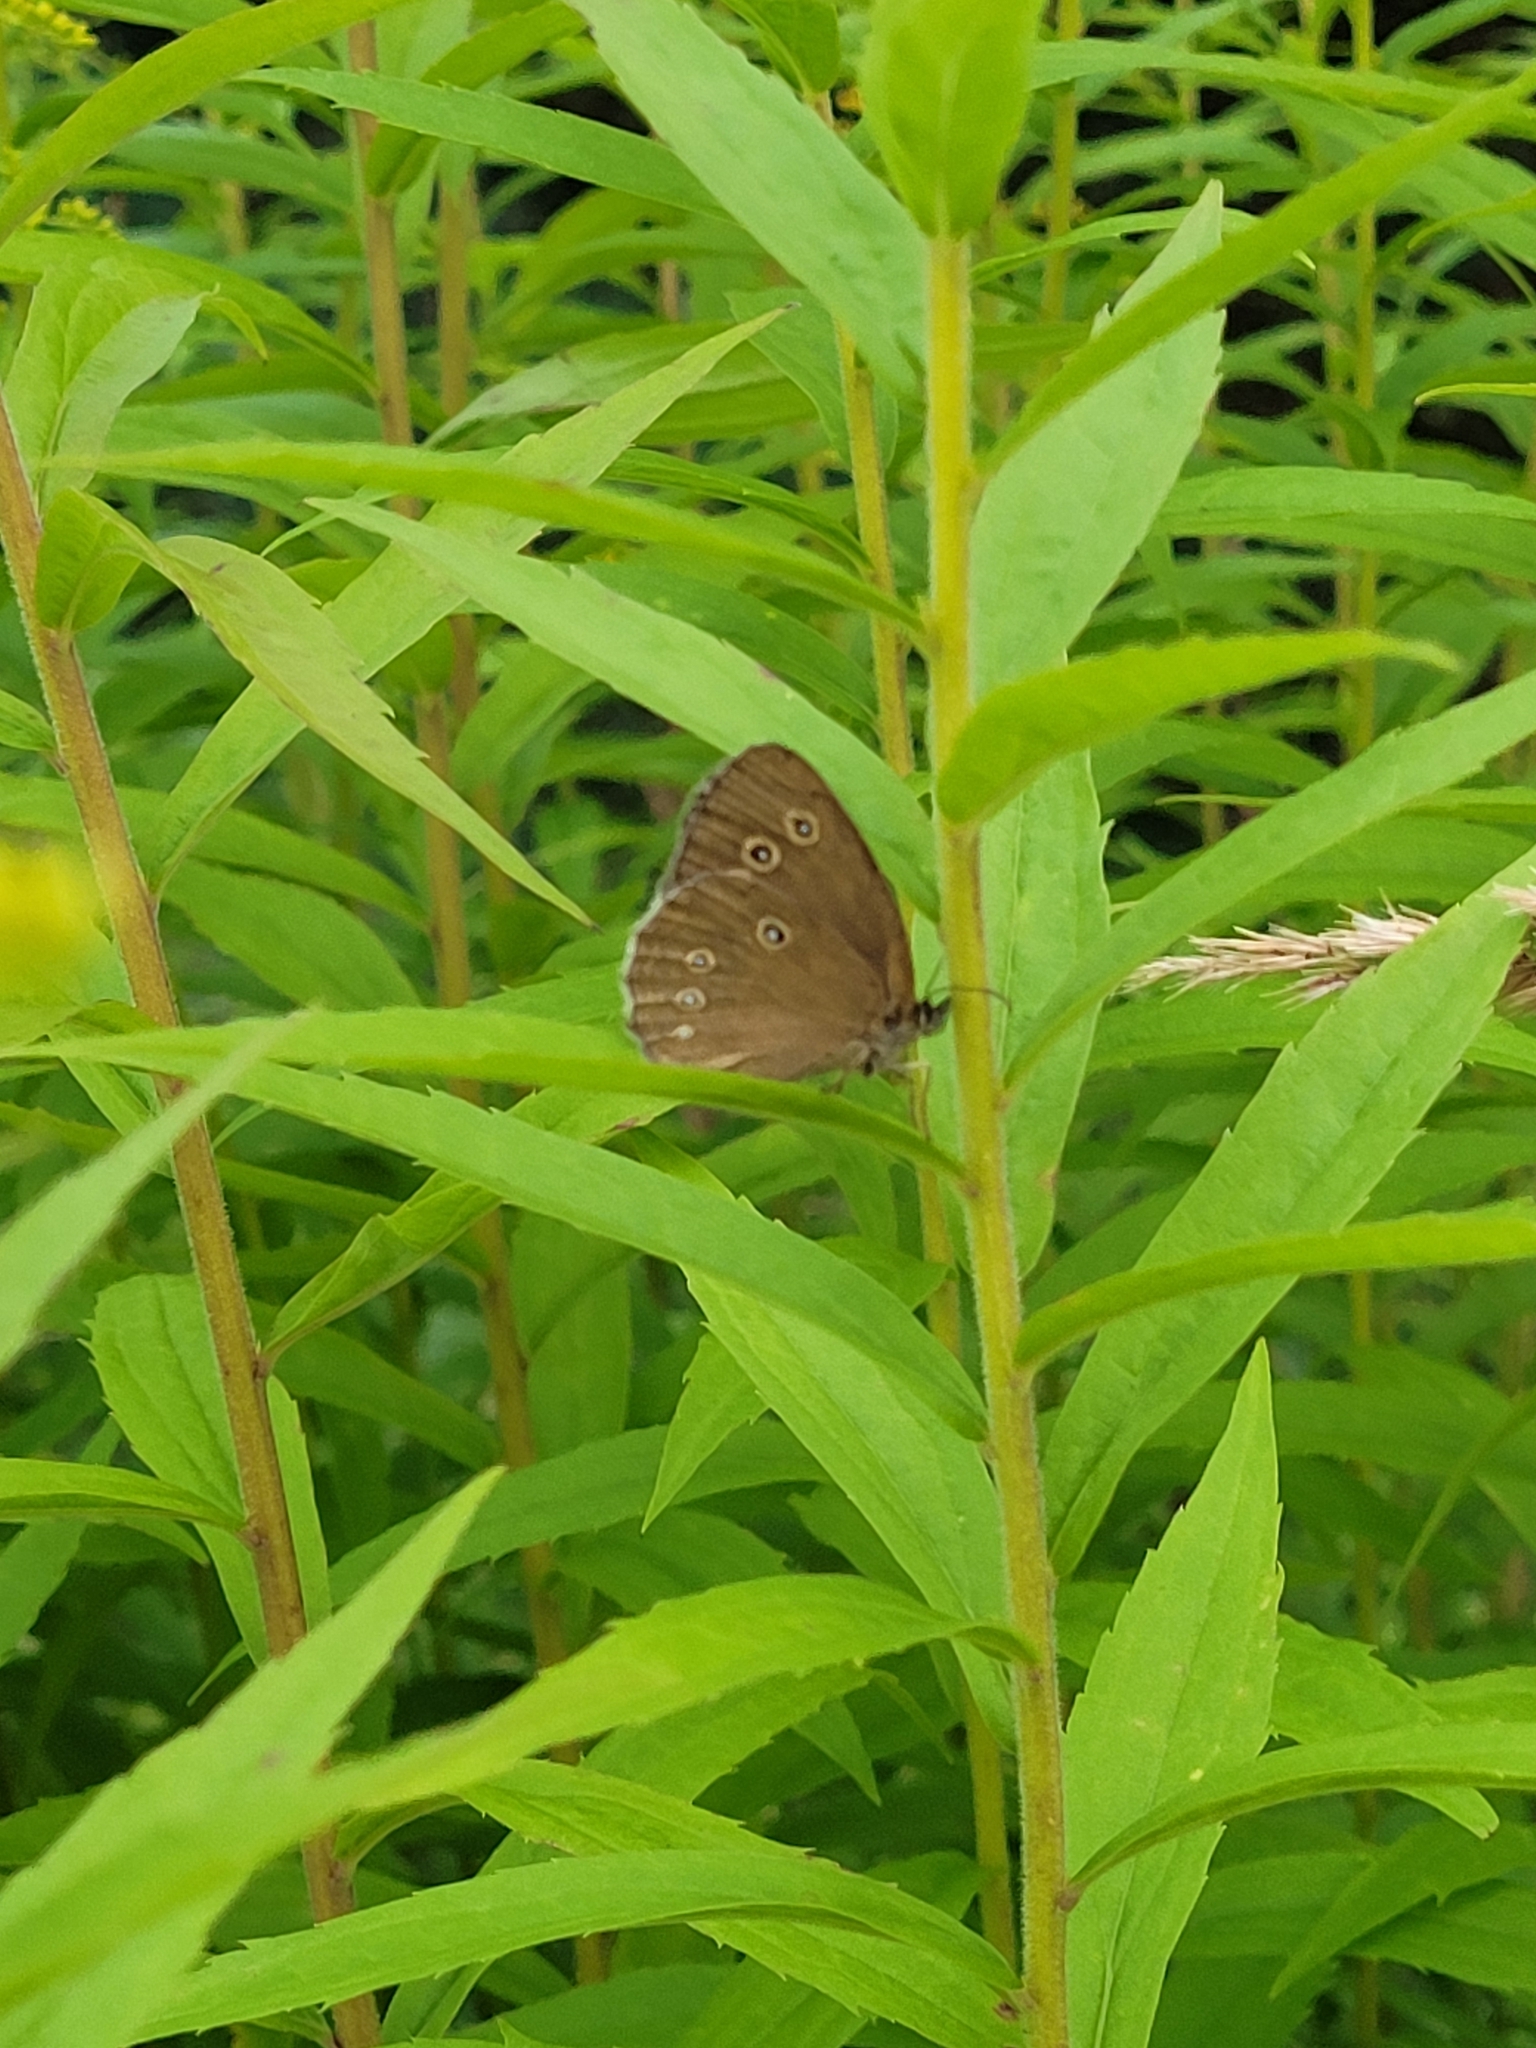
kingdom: Animalia
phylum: Arthropoda
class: Insecta
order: Lepidoptera
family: Nymphalidae
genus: Aphantopus
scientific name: Aphantopus hyperantus
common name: Ringlet
